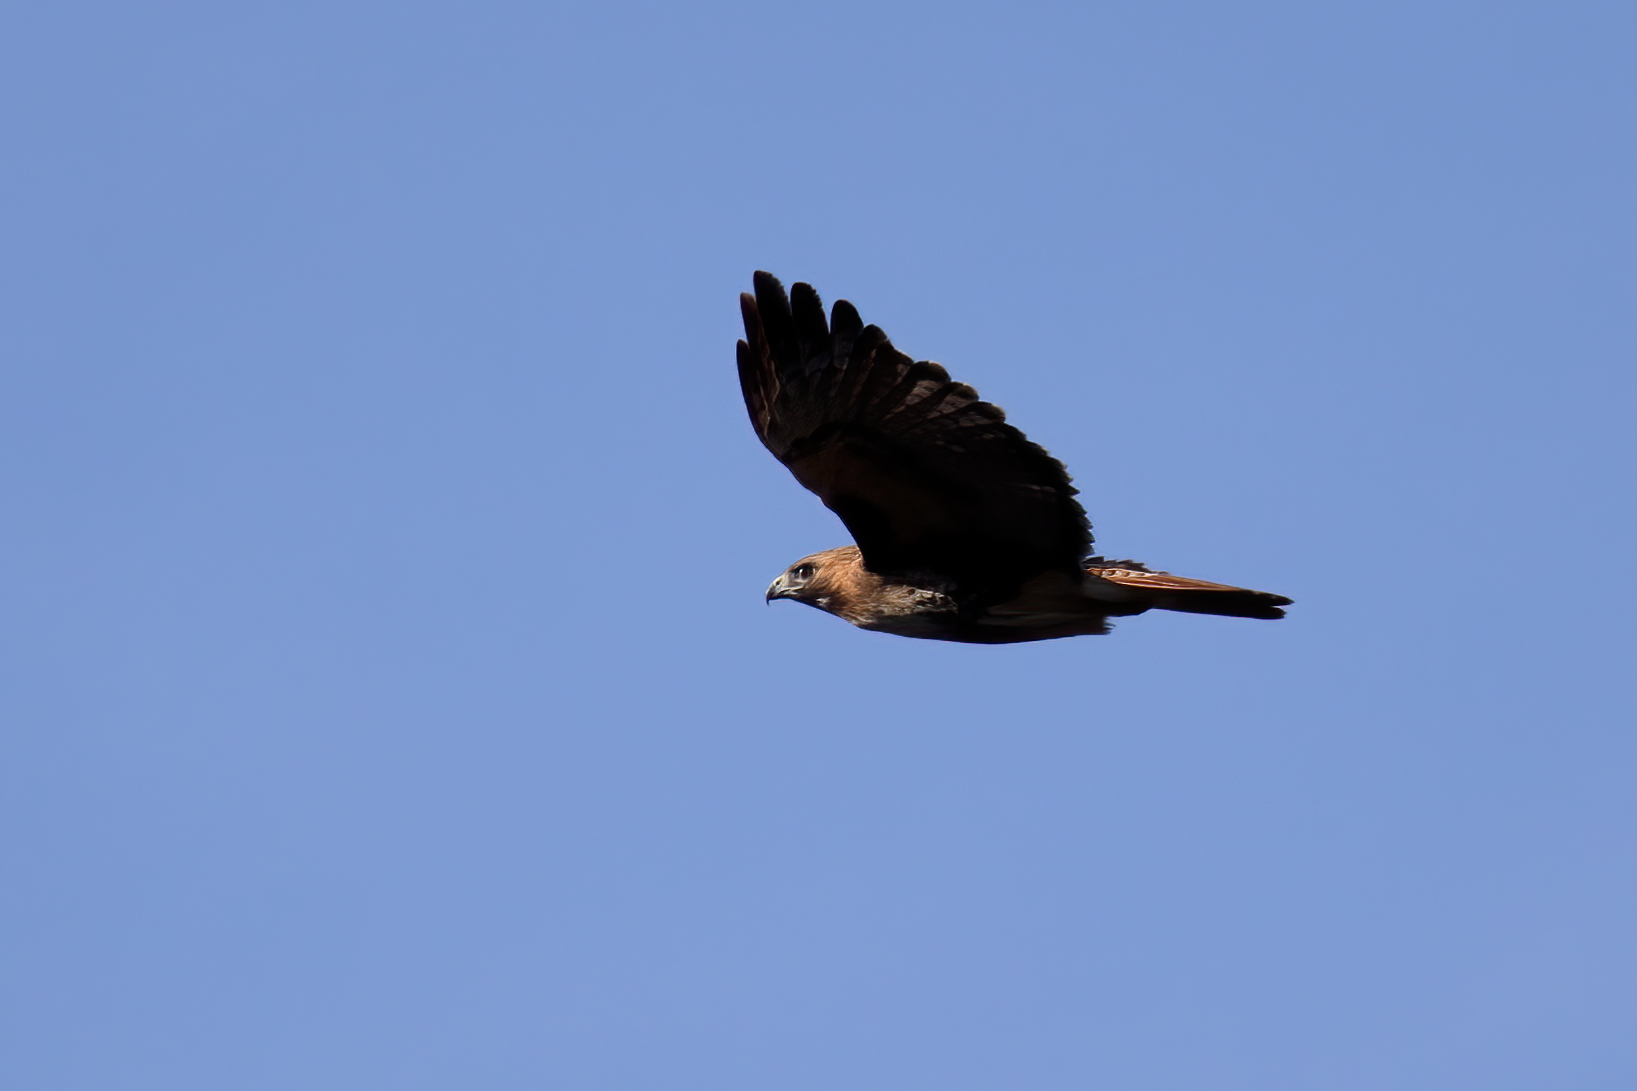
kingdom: Animalia
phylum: Chordata
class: Aves
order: Accipitriformes
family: Accipitridae
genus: Buteo
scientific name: Buteo jamaicensis
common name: Red-tailed hawk
